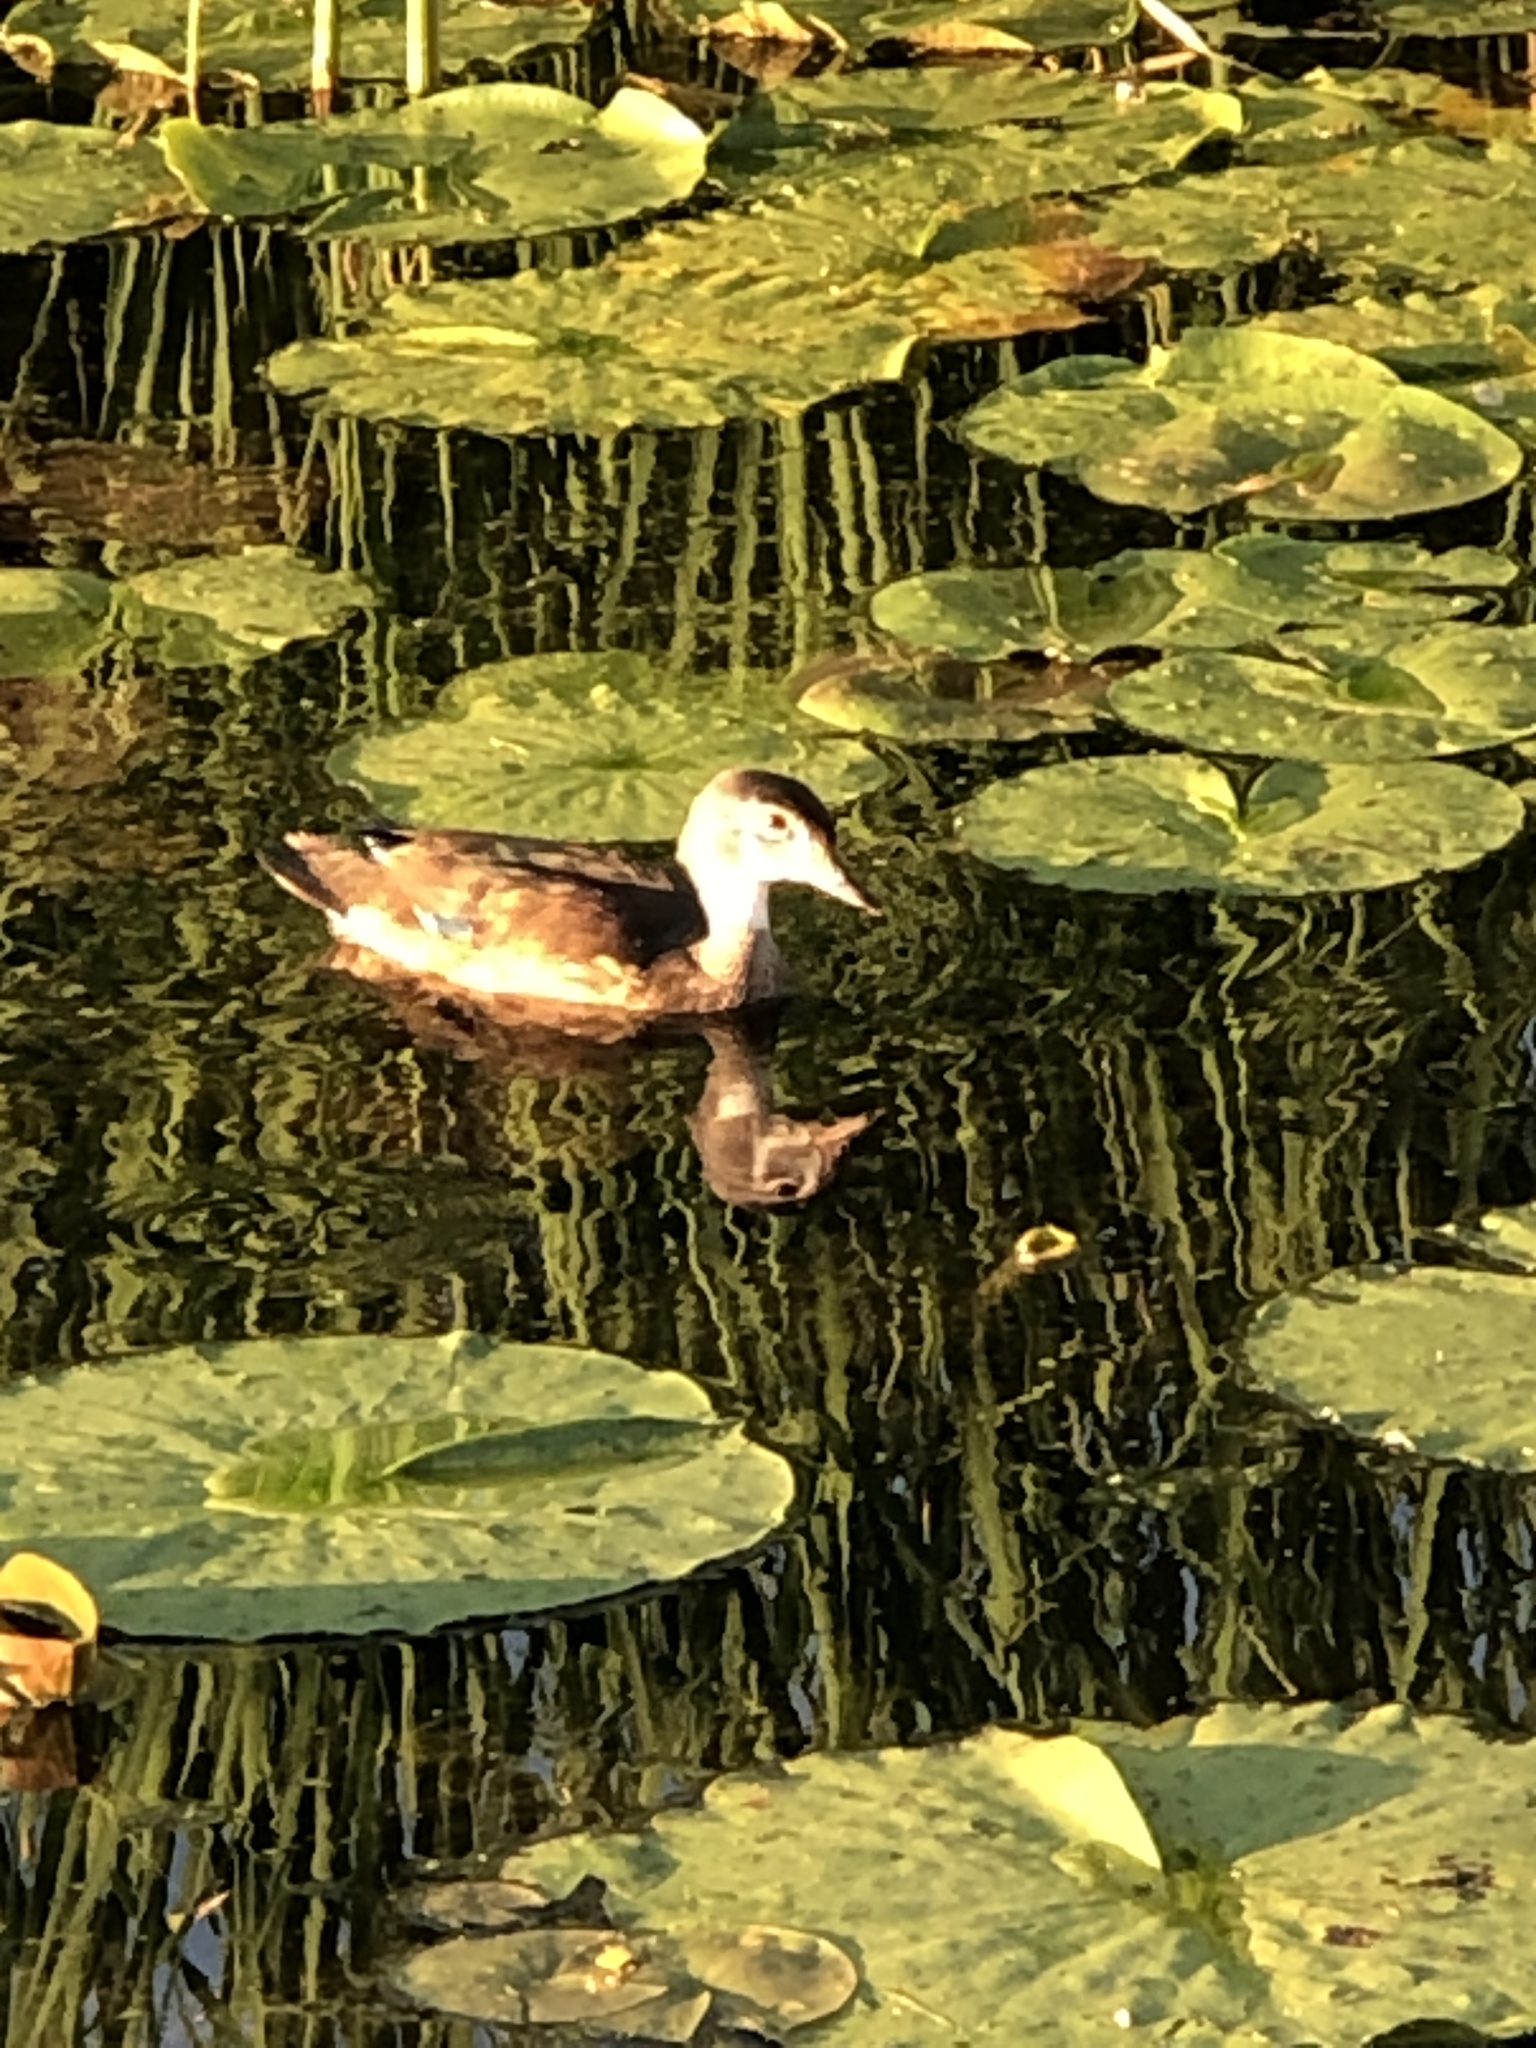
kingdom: Animalia
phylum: Chordata
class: Aves
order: Anseriformes
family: Anatidae
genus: Aix
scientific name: Aix sponsa
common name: Wood duck
